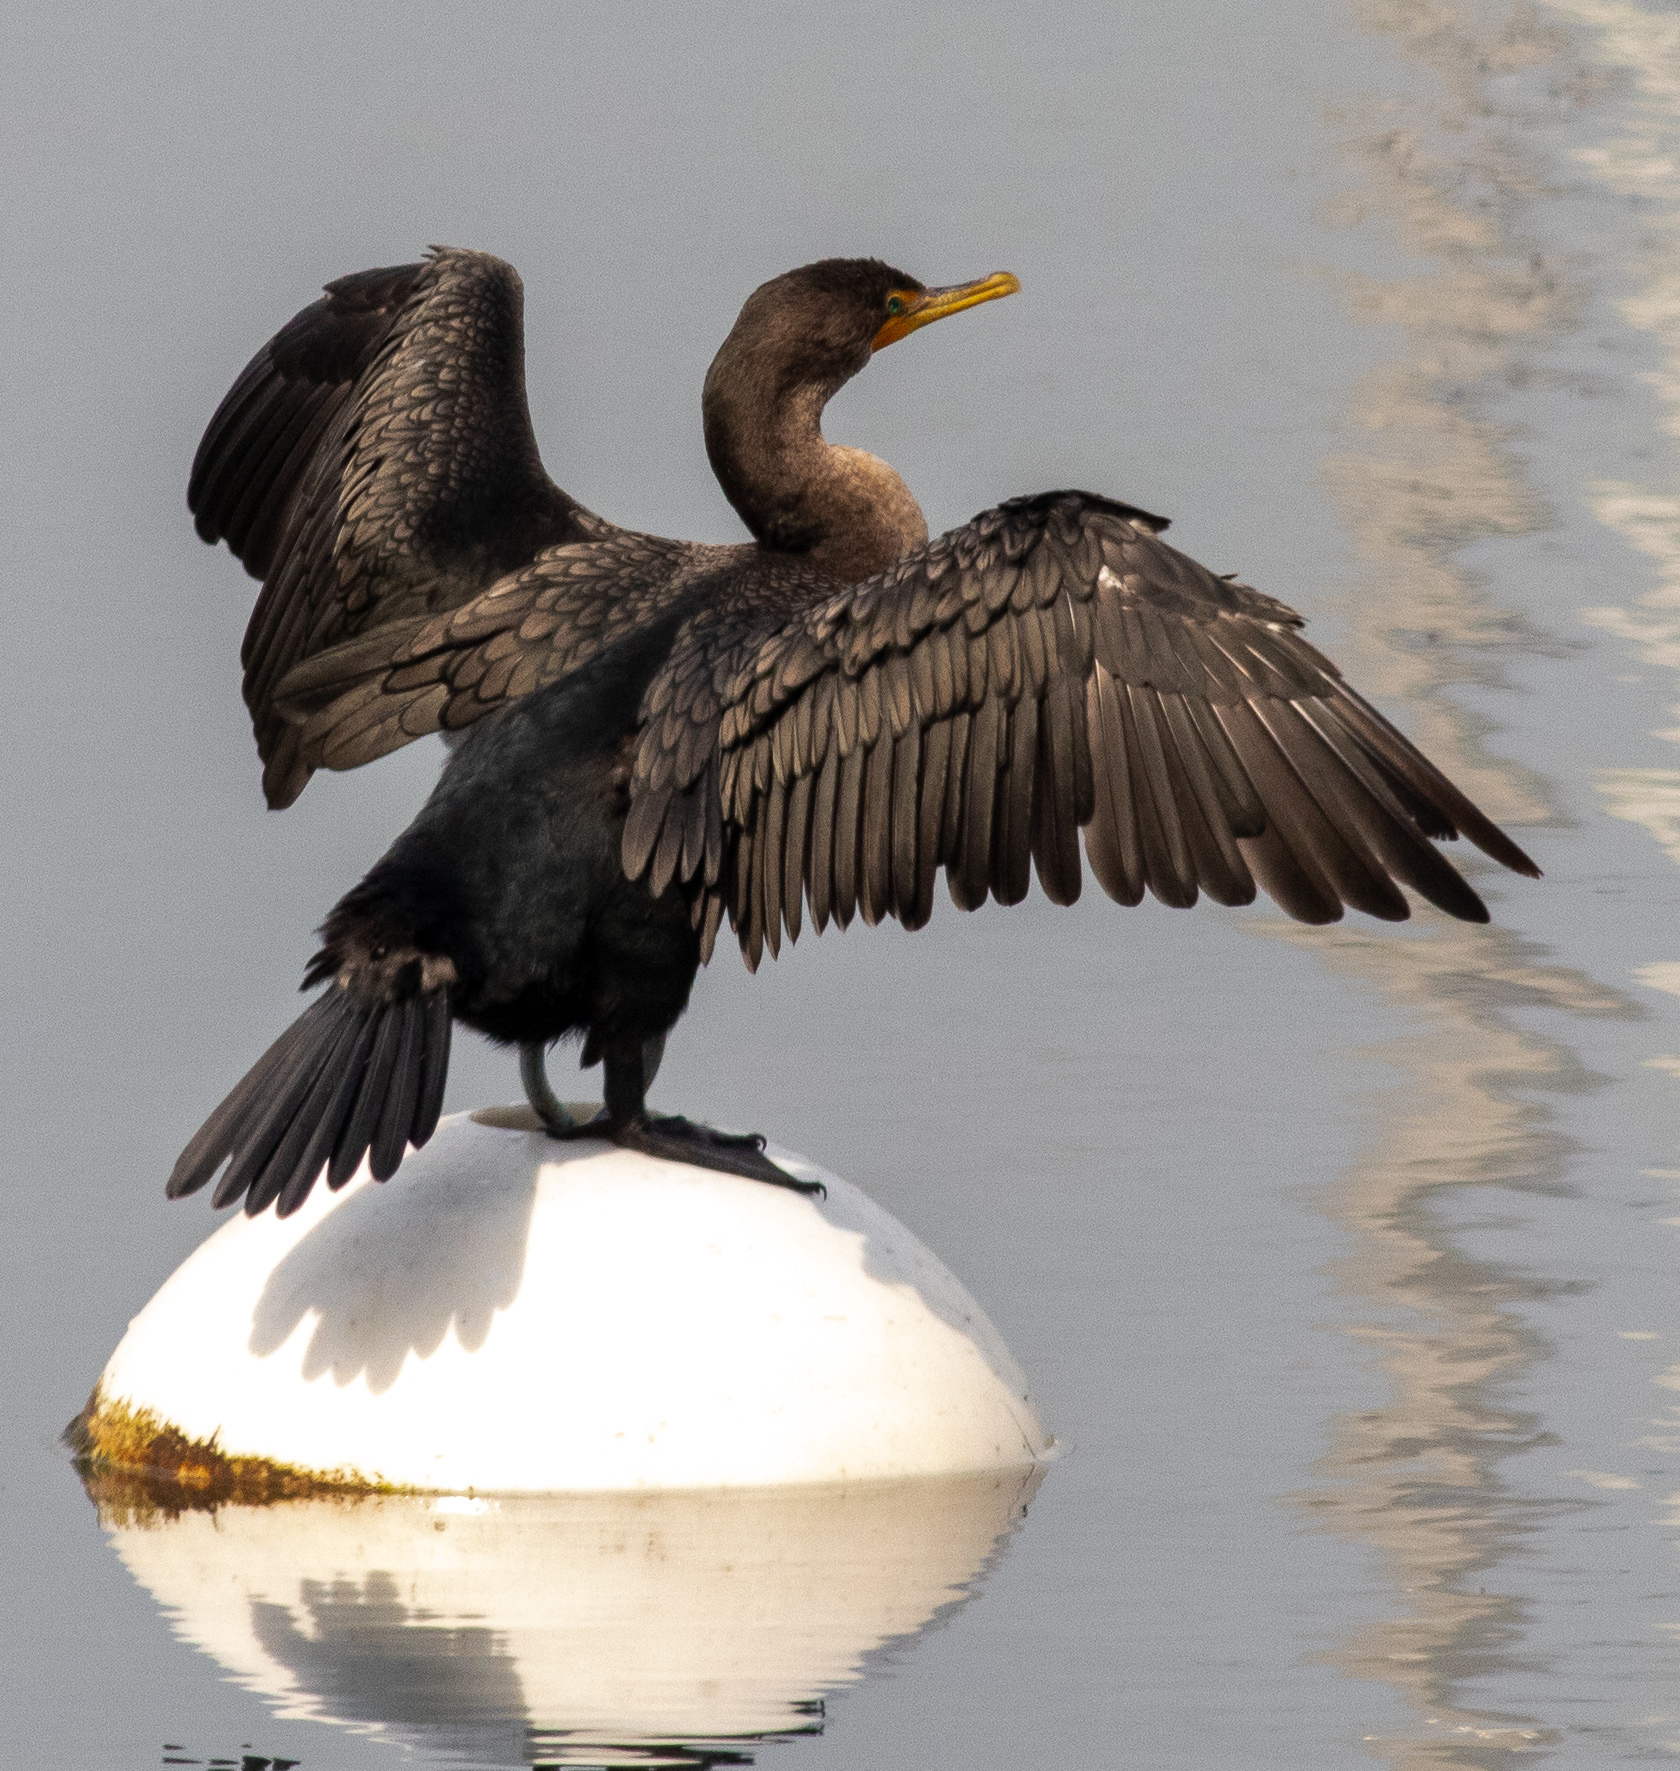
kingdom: Animalia
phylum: Chordata
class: Aves
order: Suliformes
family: Phalacrocoracidae
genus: Phalacrocorax
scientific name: Phalacrocorax auritus
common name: Double-crested cormorant
